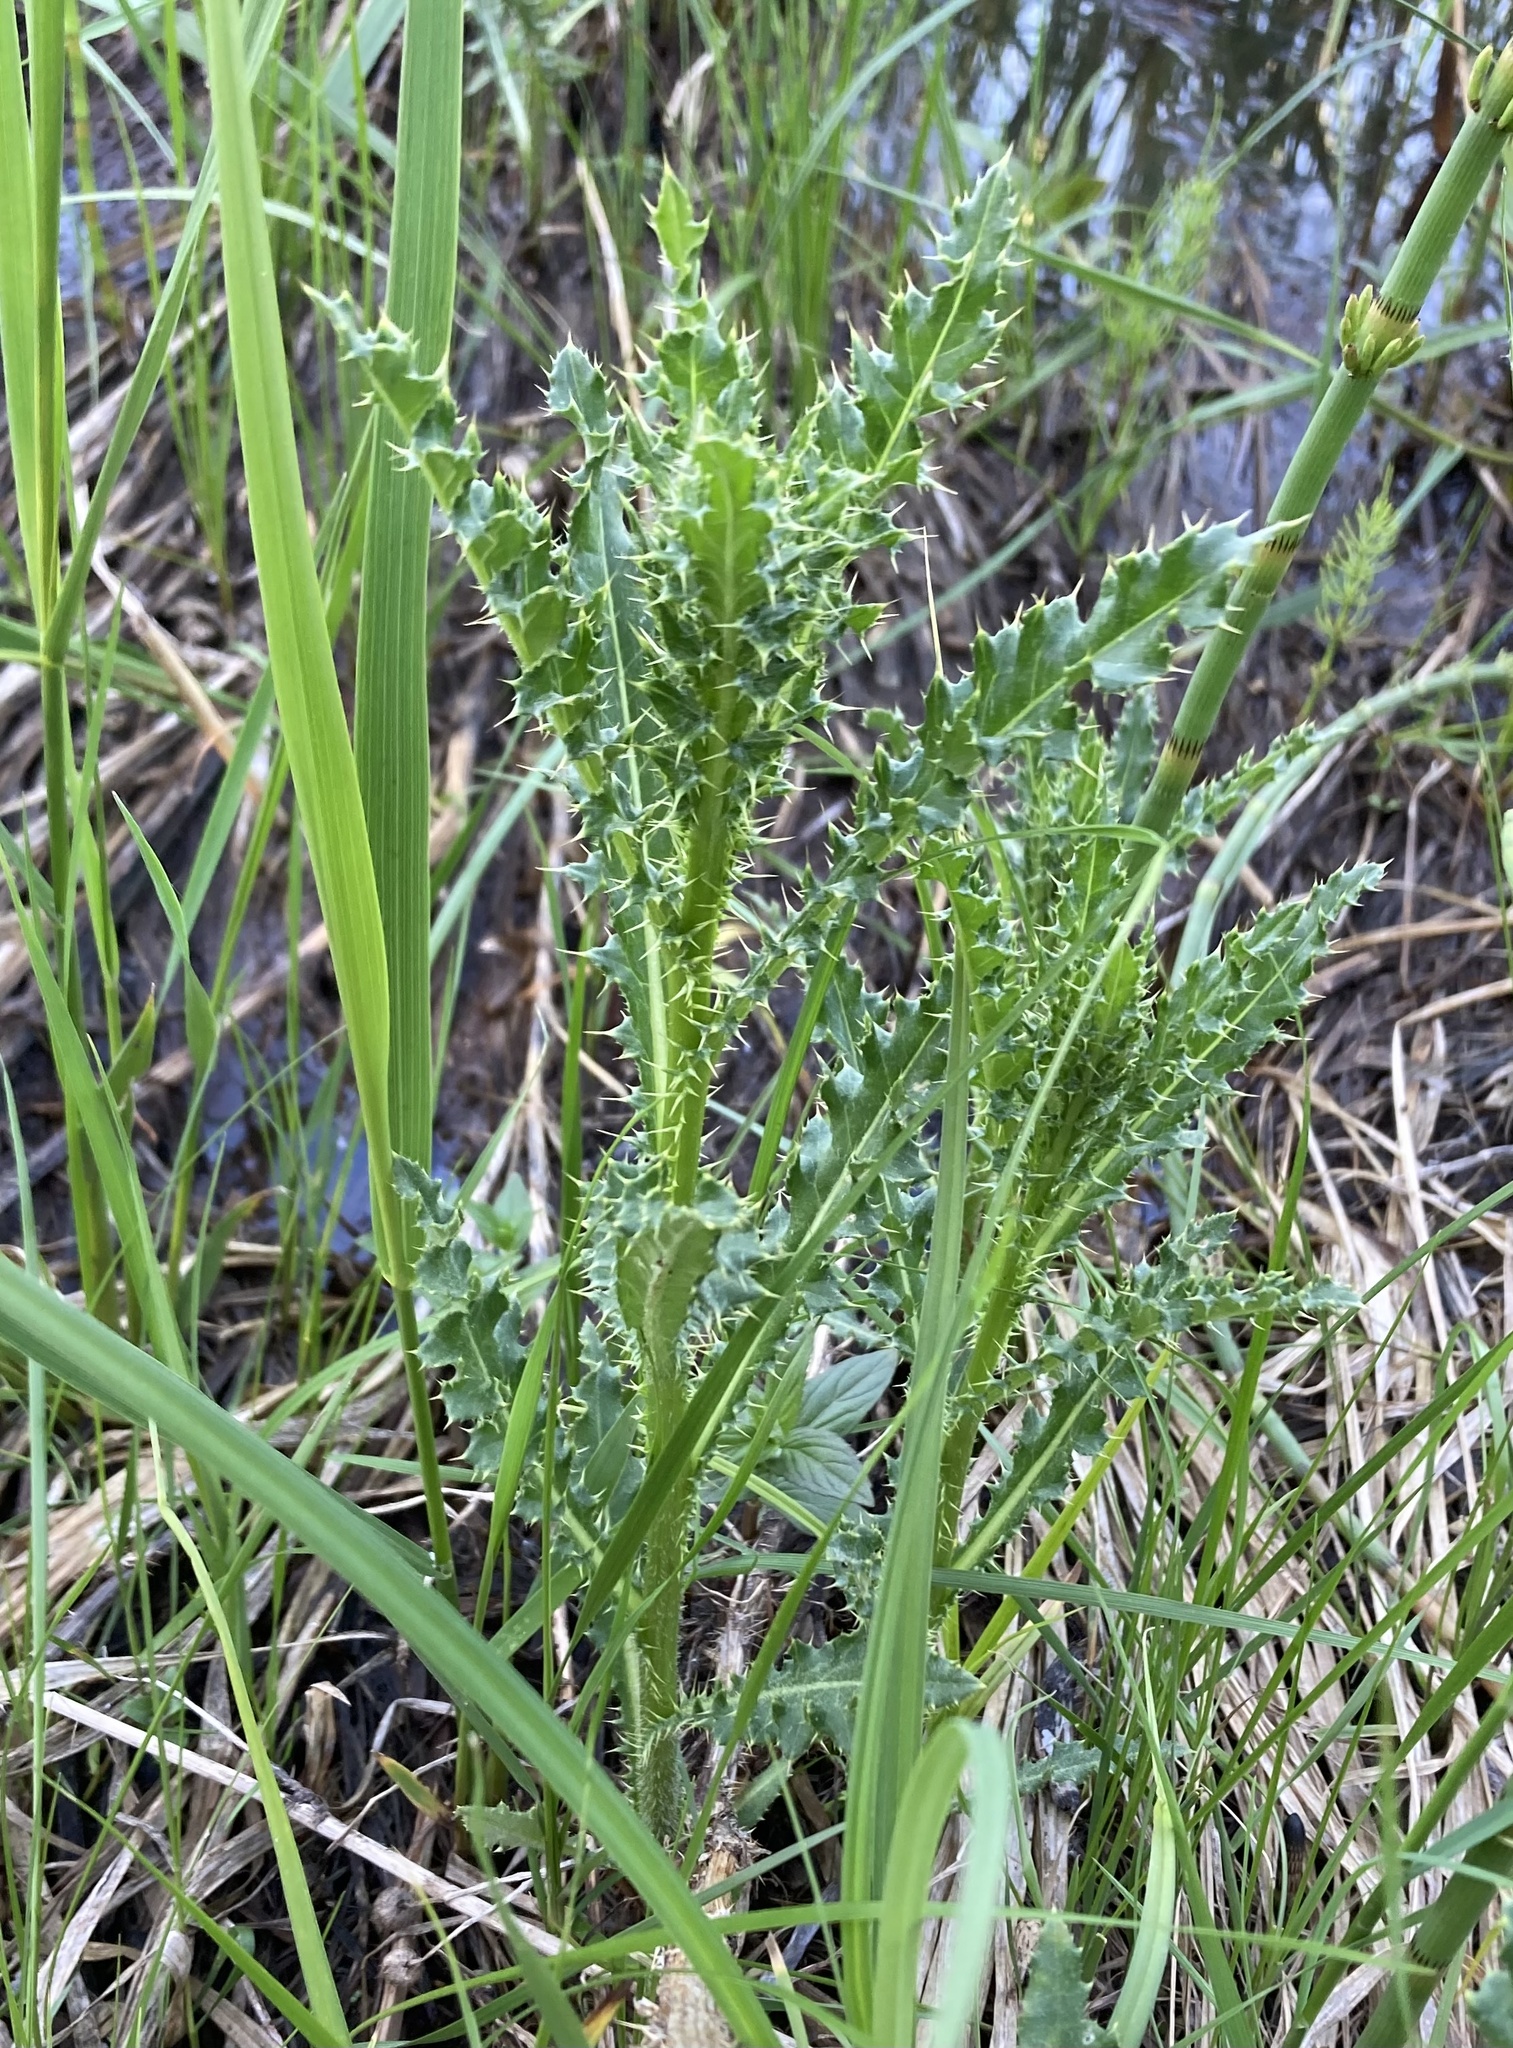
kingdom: Plantae
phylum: Tracheophyta
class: Magnoliopsida
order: Asterales
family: Asteraceae
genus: Cirsium
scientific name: Cirsium arvense
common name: Creeping thistle
